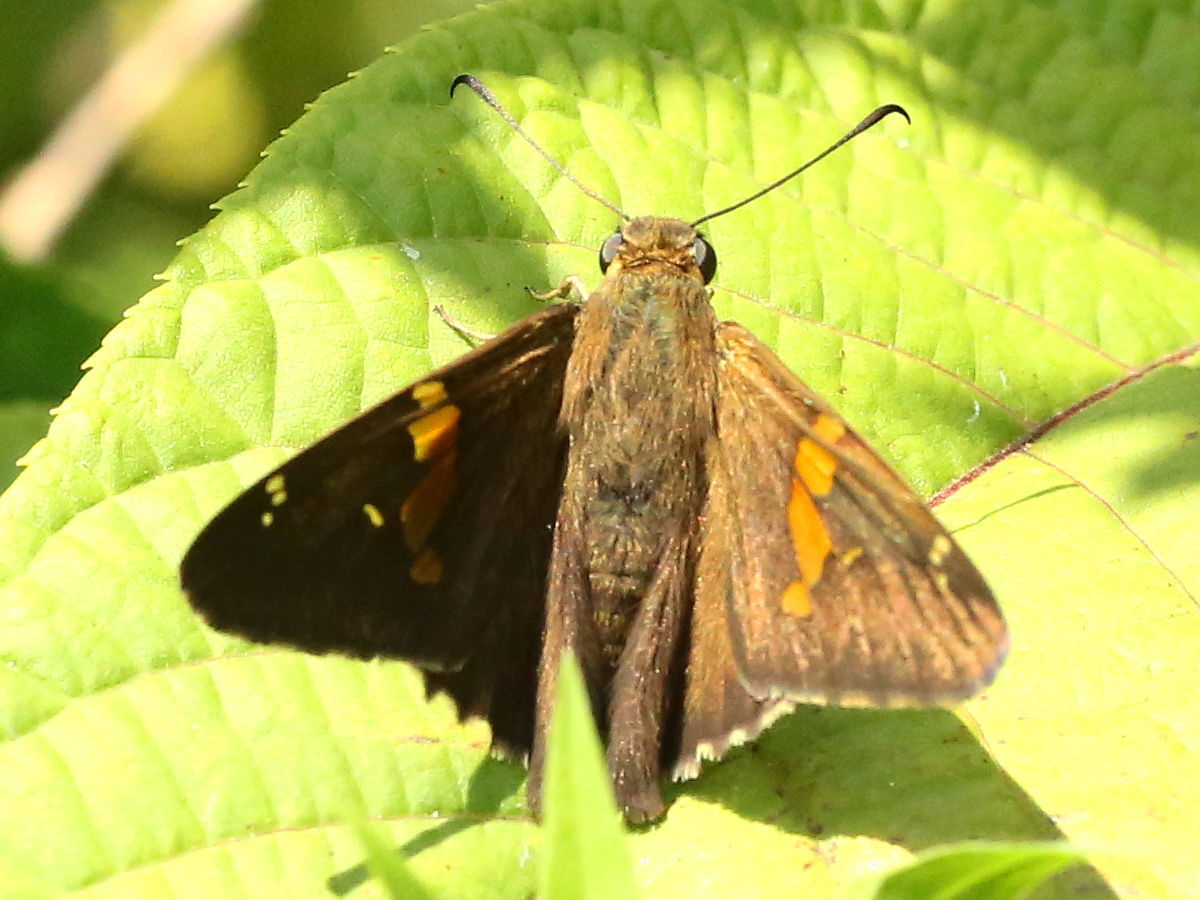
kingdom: Animalia
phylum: Arthropoda
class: Insecta
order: Lepidoptera
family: Hesperiidae
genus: Epargyreus
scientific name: Epargyreus clarus
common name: Silver-spotted skipper
